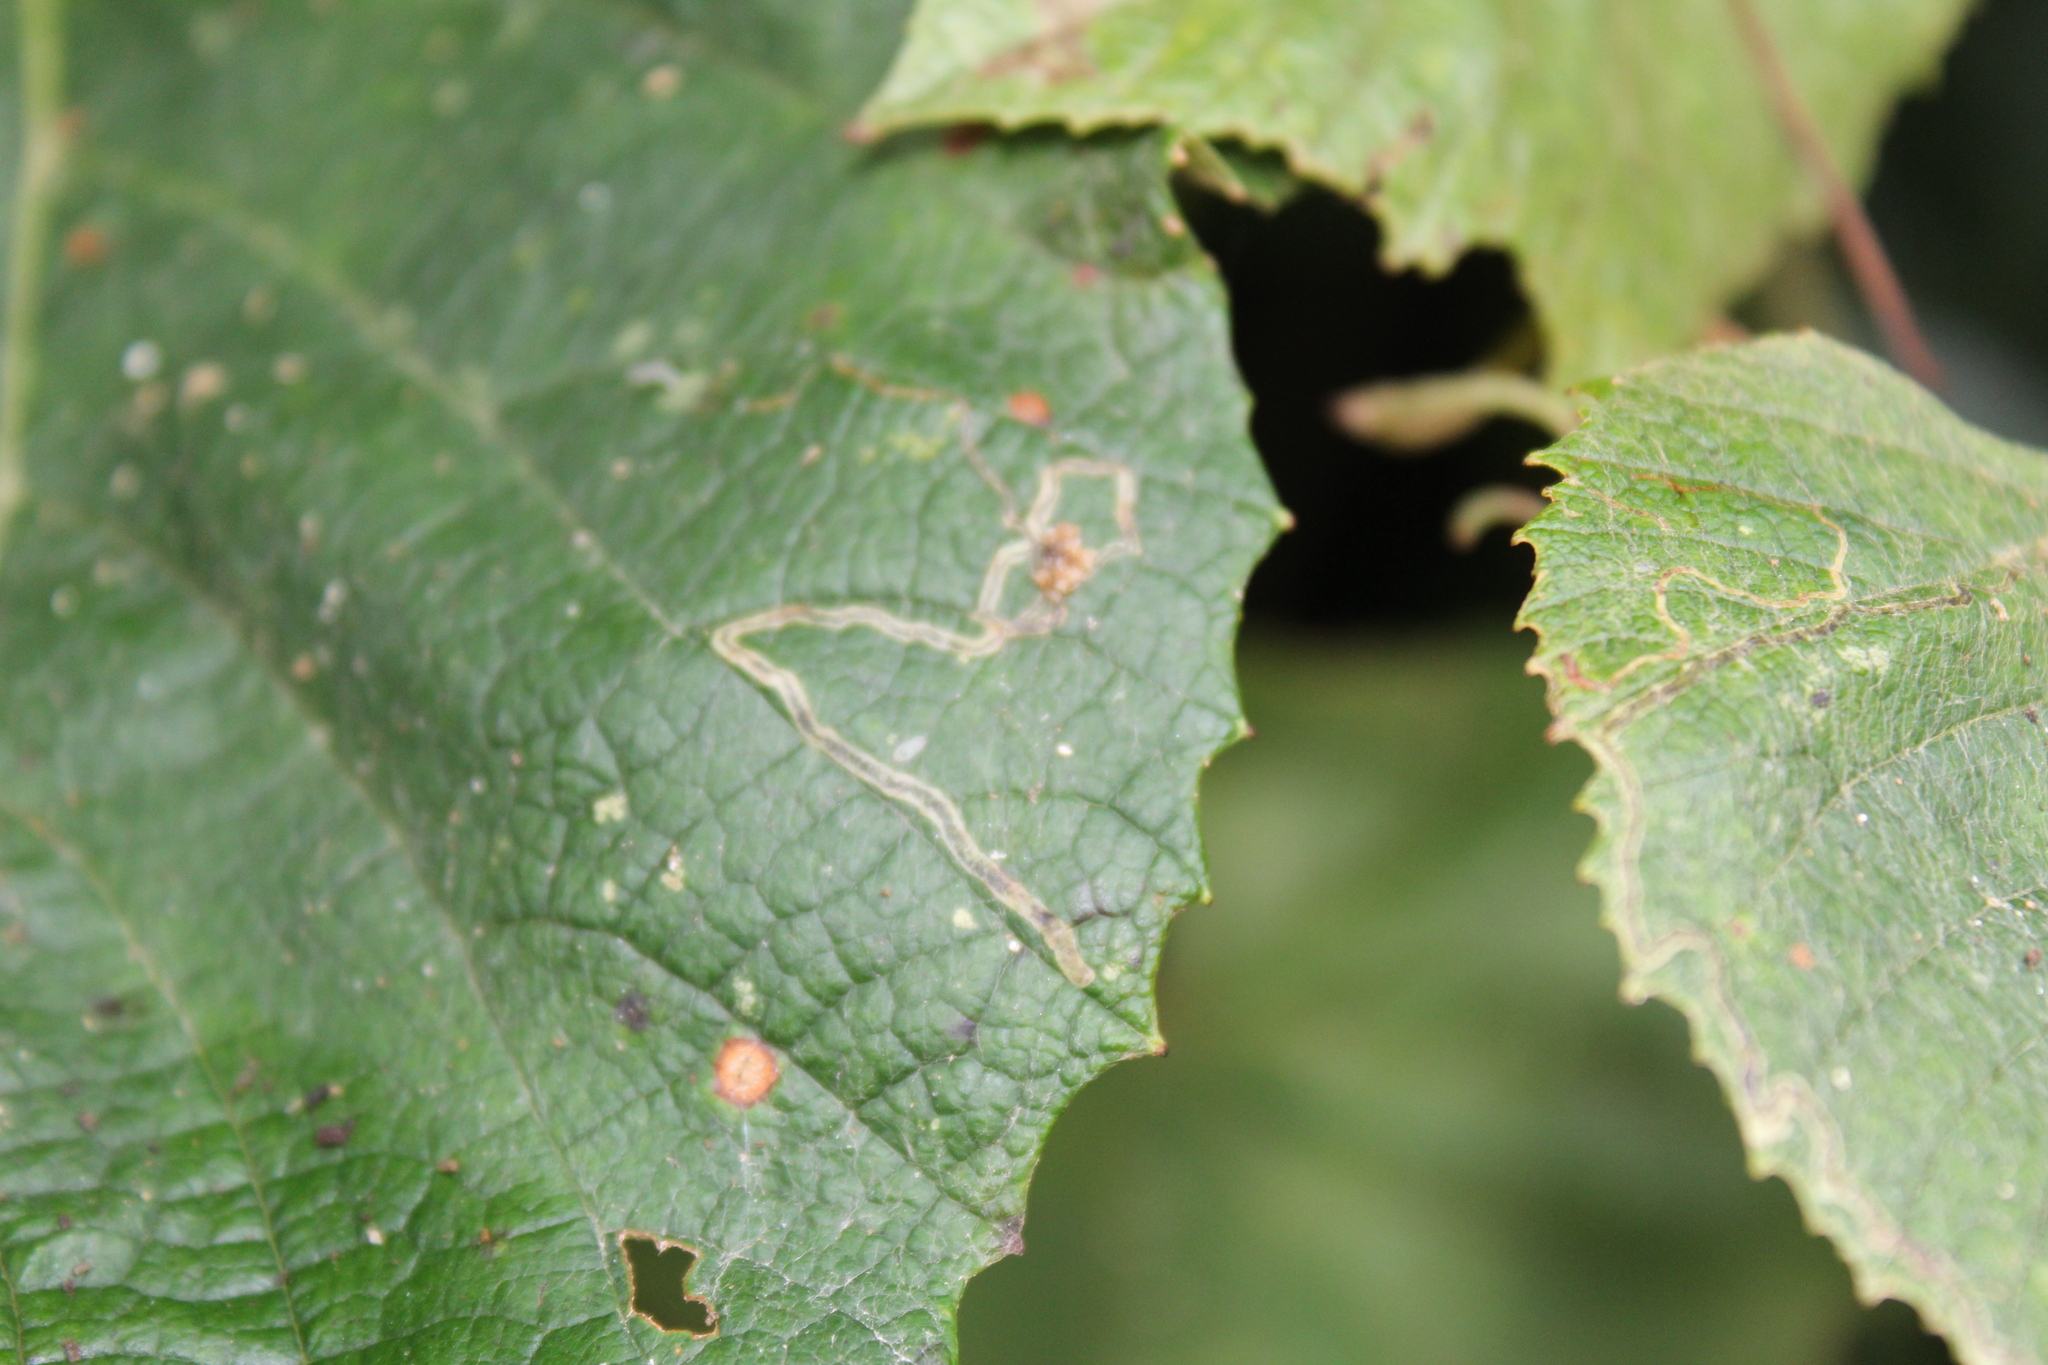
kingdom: Animalia
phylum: Arthropoda
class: Insecta
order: Lepidoptera
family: Gracillariidae
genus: Phyllocnistis
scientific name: Phyllocnistis vitifoliella
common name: Grape leaf-miner moth
